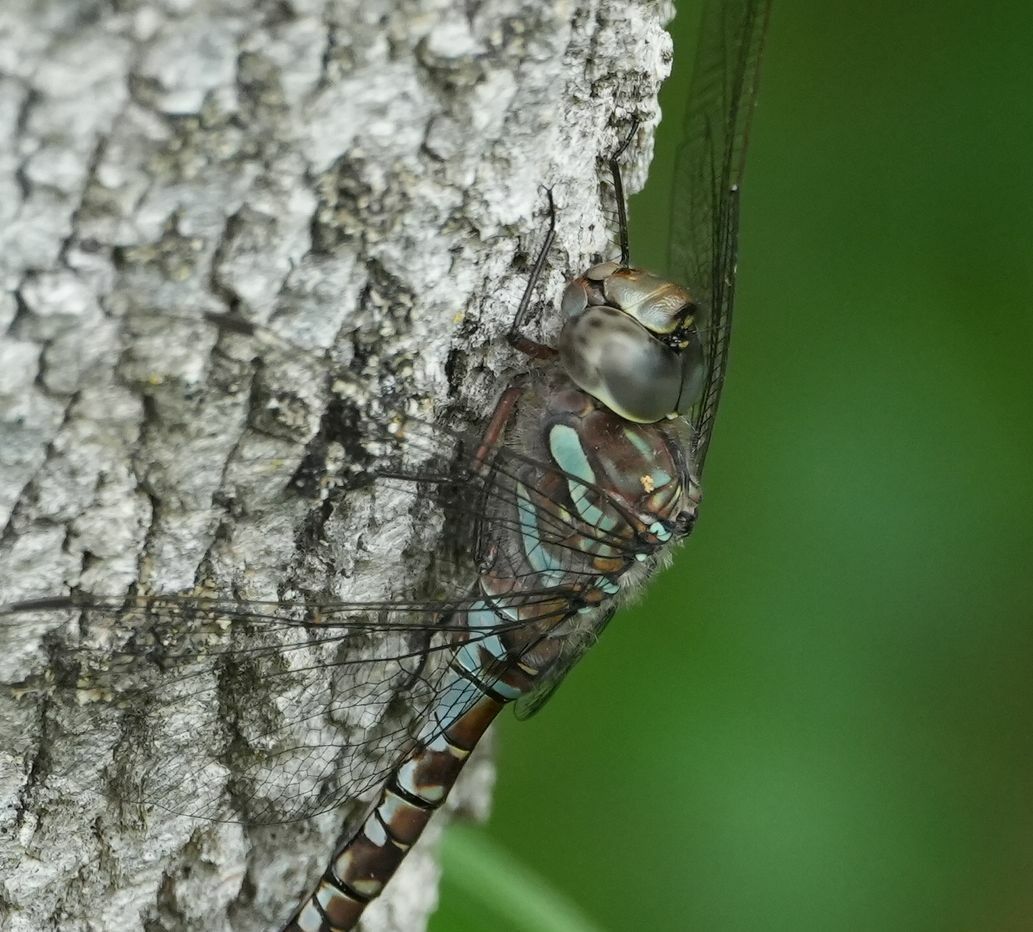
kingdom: Animalia
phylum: Arthropoda
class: Insecta
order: Odonata
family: Aeshnidae
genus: Aeshna
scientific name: Aeshna canadensis
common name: Canada darner
